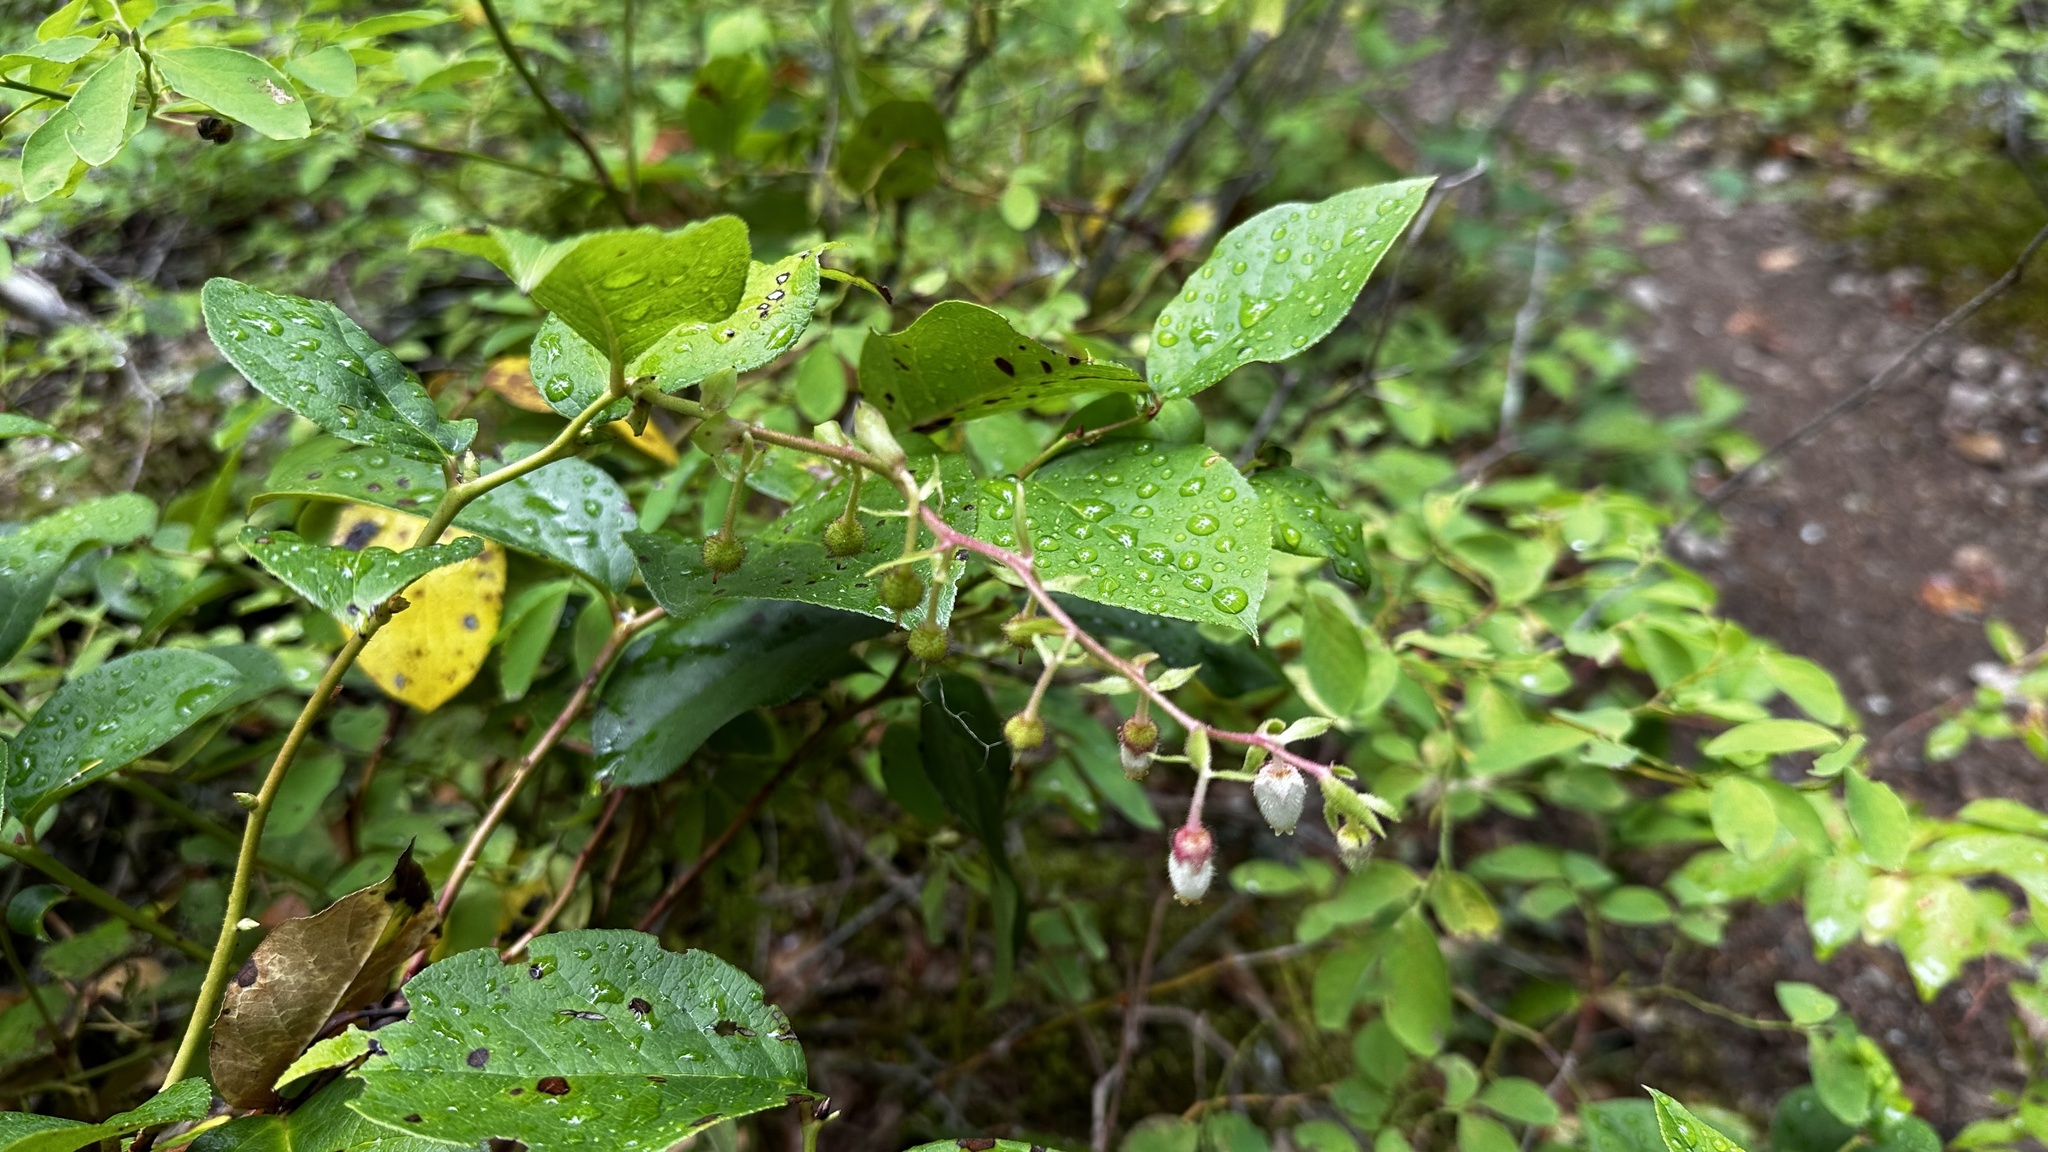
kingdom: Plantae
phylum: Tracheophyta
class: Magnoliopsida
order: Ericales
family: Ericaceae
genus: Gaultheria
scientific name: Gaultheria shallon
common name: Shallon
